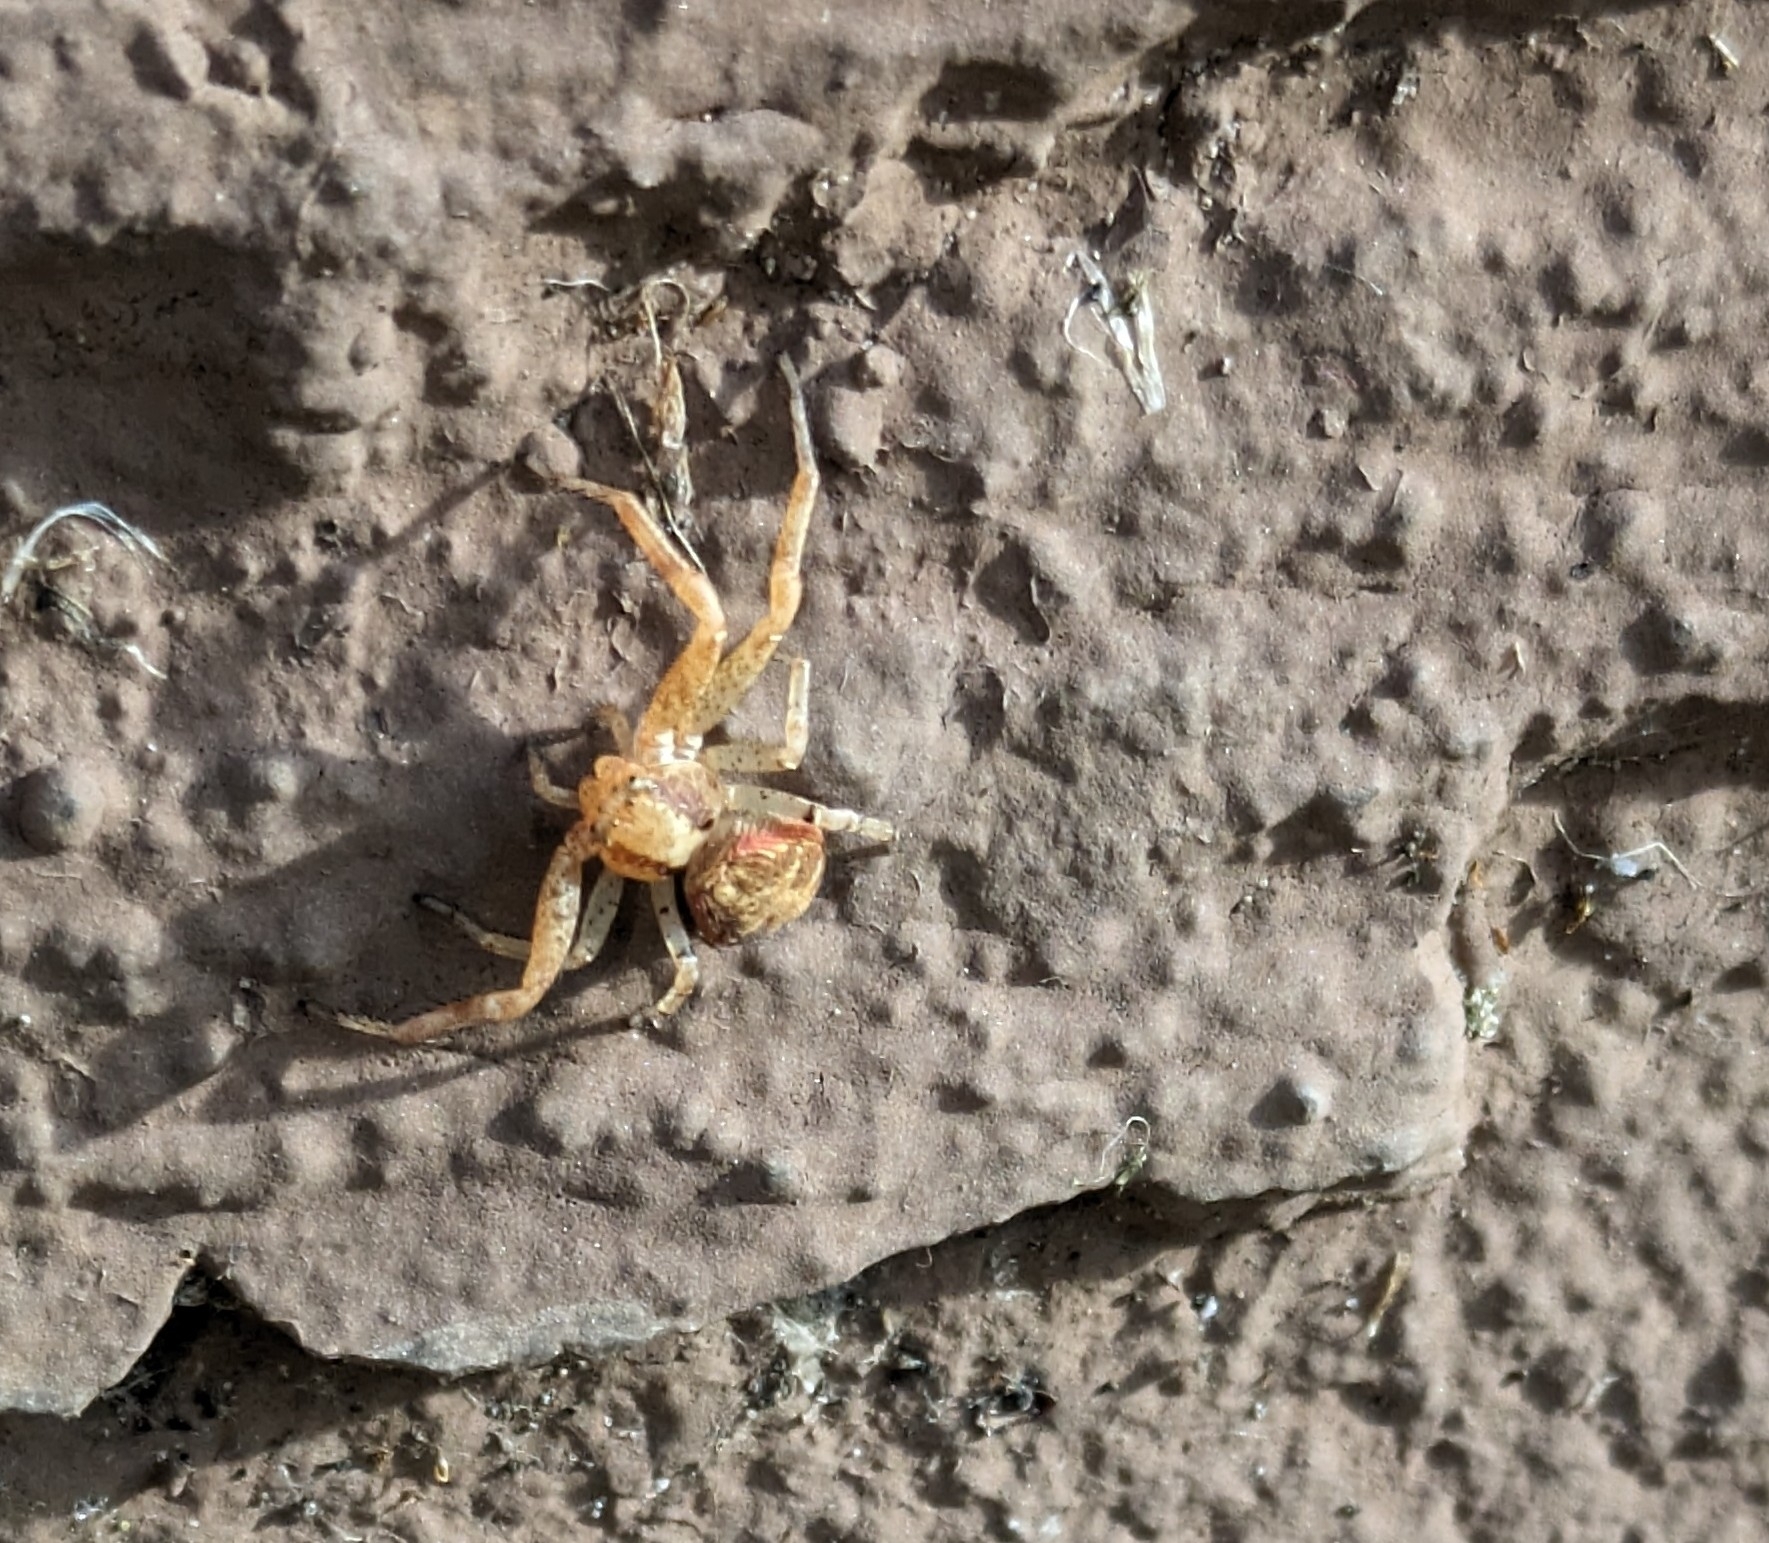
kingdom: Animalia
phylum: Arthropoda
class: Arachnida
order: Araneae
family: Thomisidae
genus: Xysticus
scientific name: Xysticus
